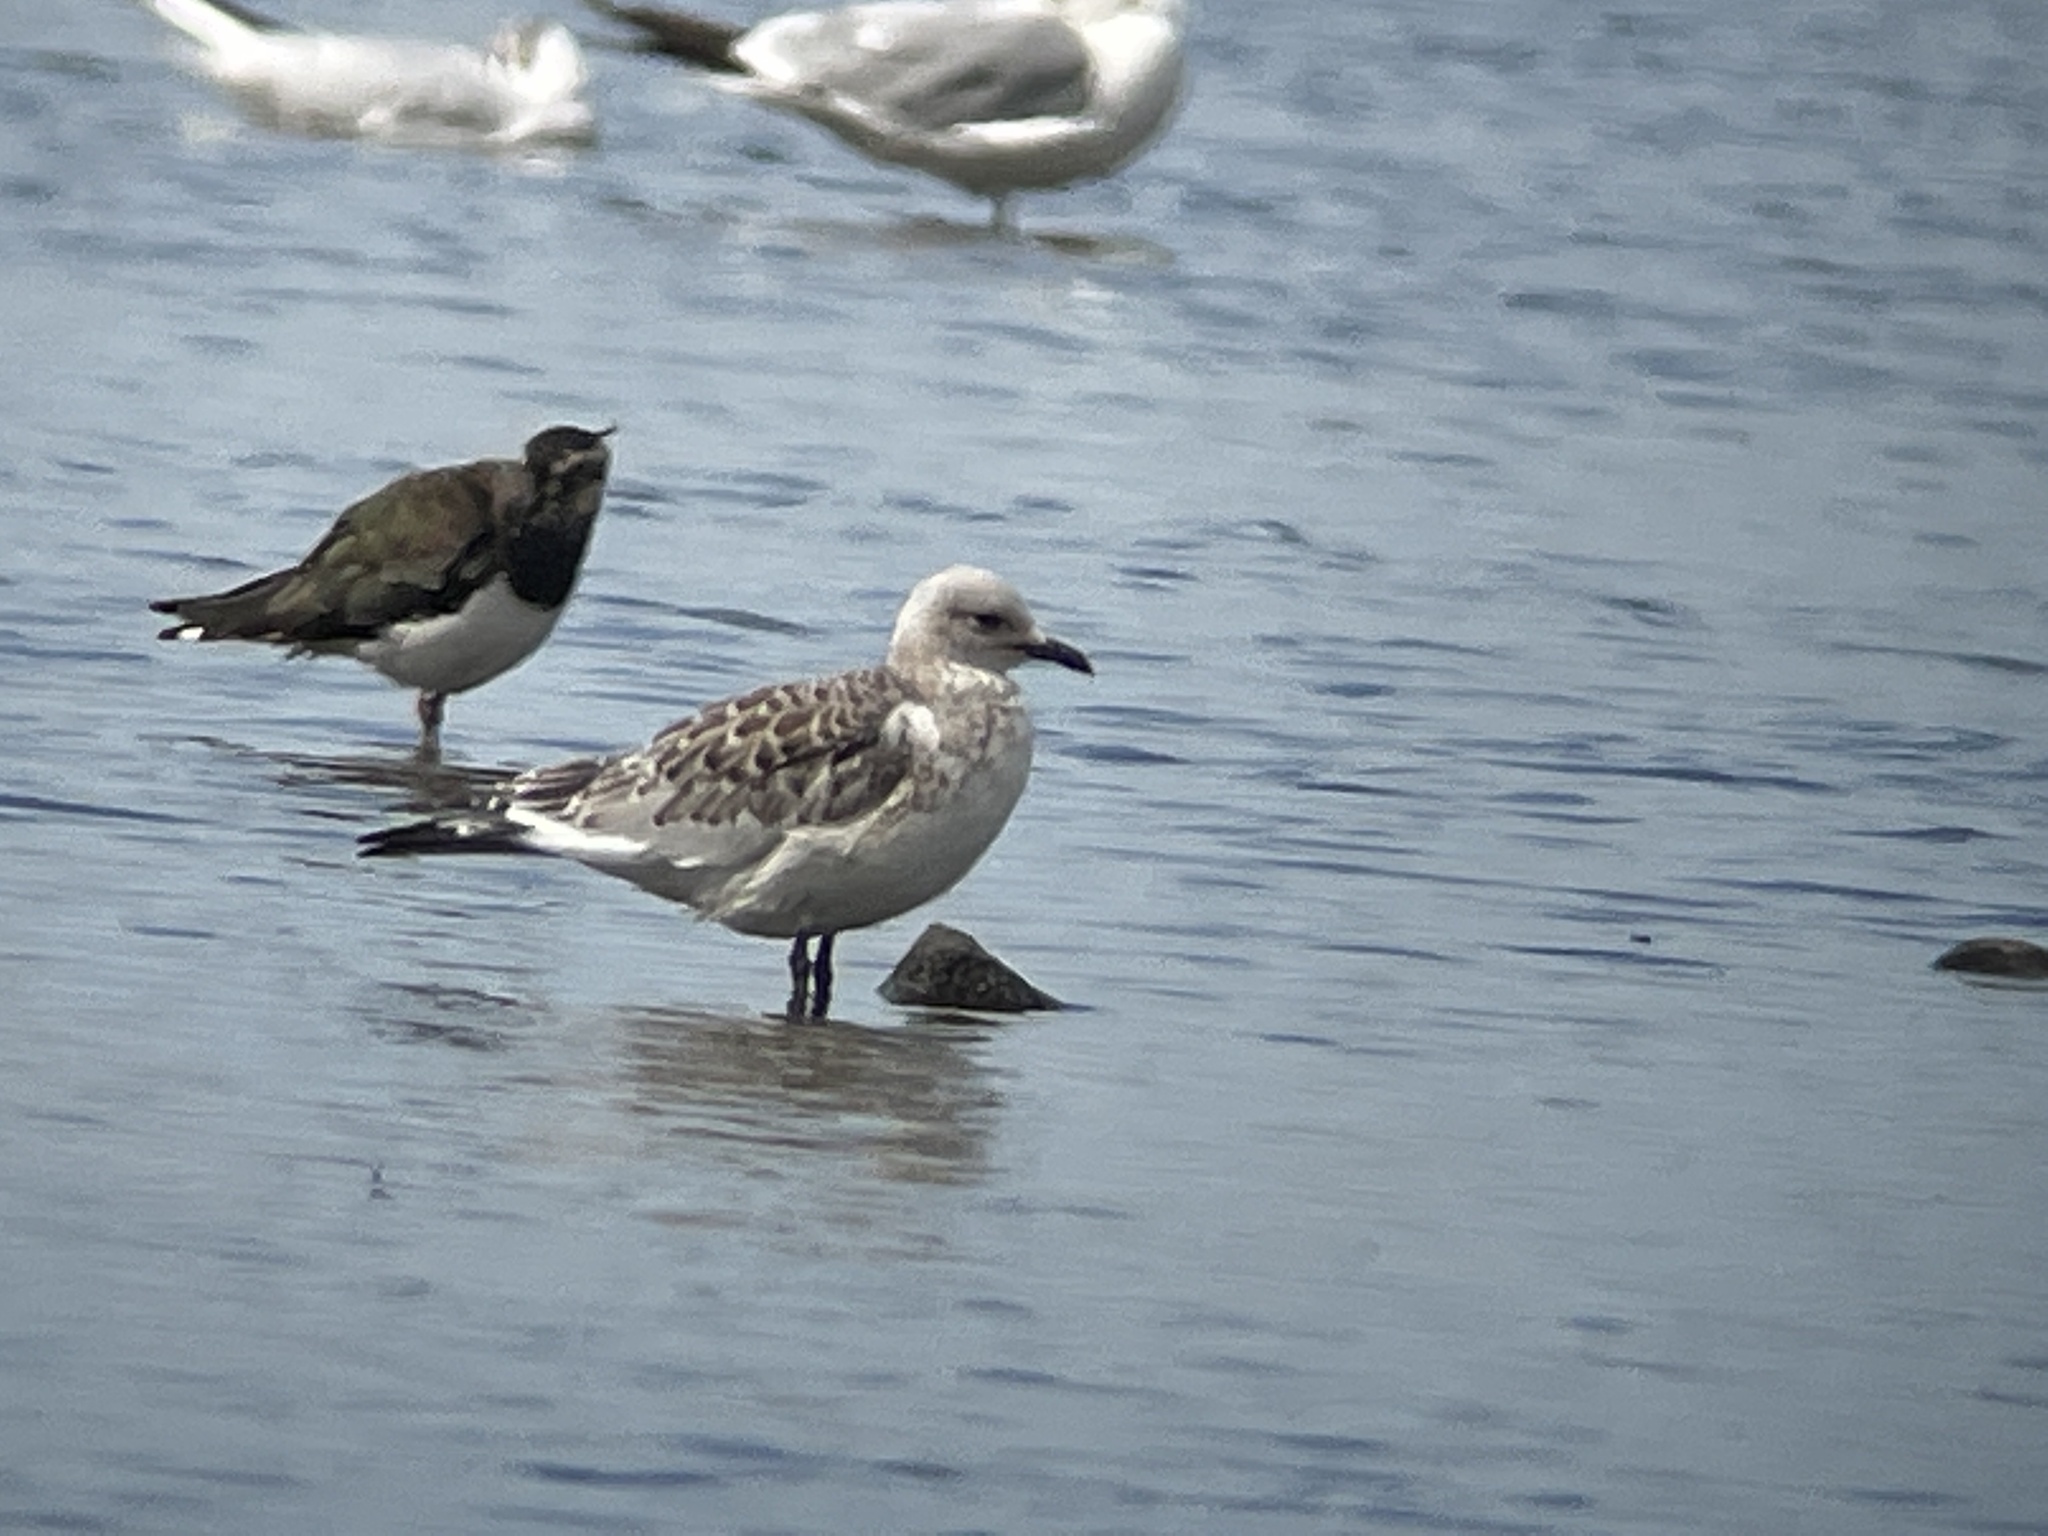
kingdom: Animalia
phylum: Chordata
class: Aves
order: Charadriiformes
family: Laridae
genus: Ichthyaetus
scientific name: Ichthyaetus melanocephalus
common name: Mediterranean gull
